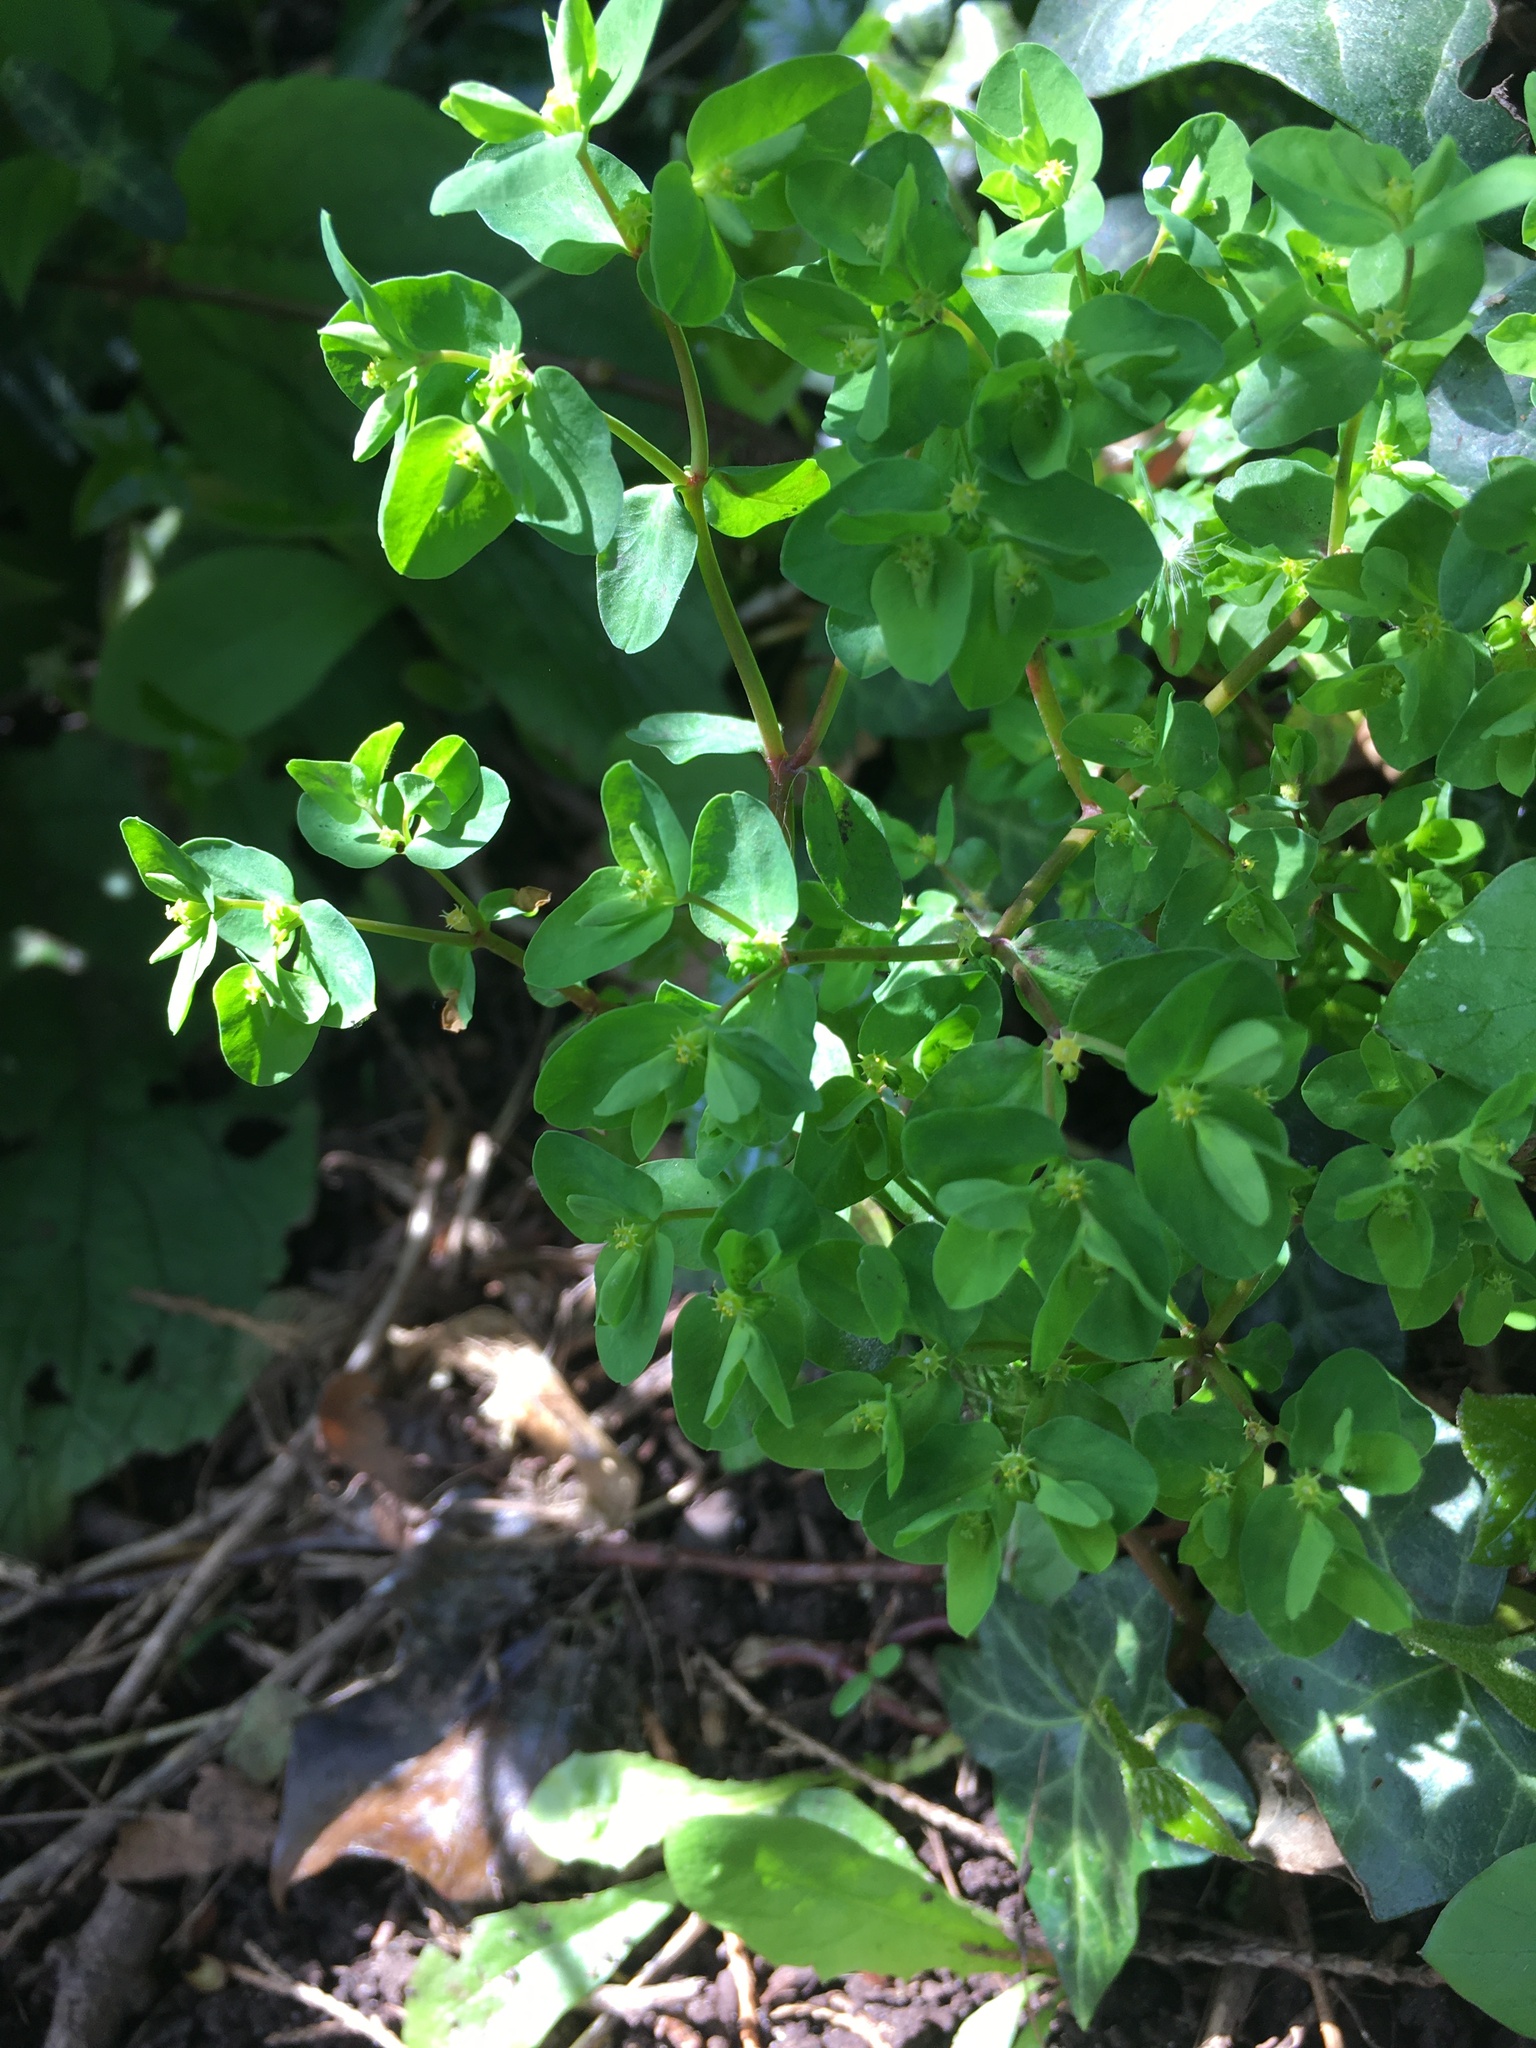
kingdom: Plantae
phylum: Tracheophyta
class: Magnoliopsida
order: Malpighiales
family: Euphorbiaceae
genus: Euphorbia
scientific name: Euphorbia peplus
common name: Petty spurge
